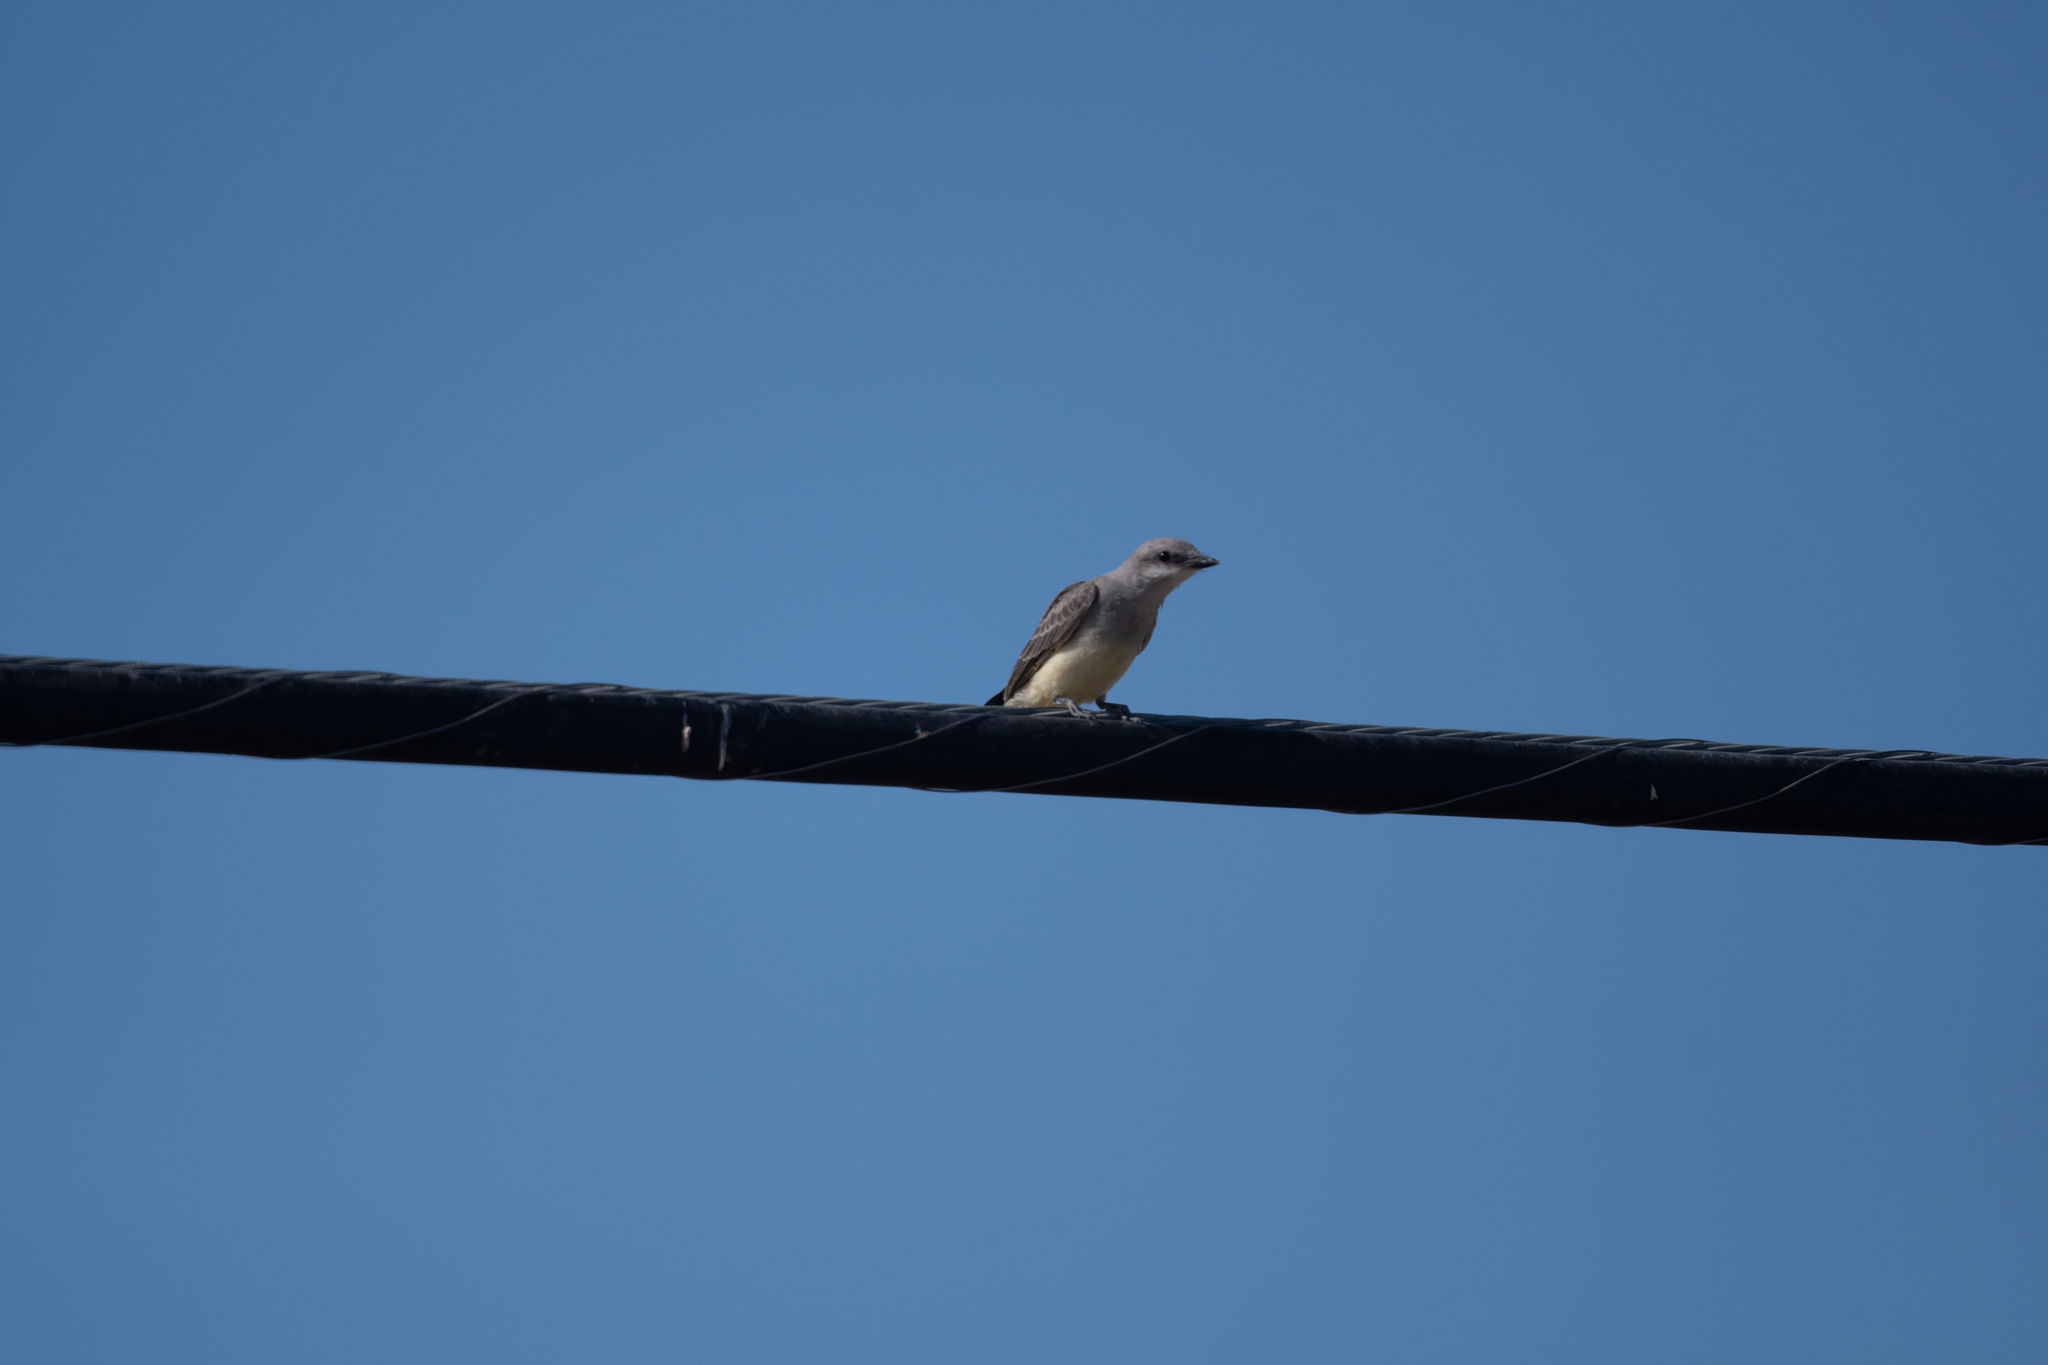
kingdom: Animalia
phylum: Chordata
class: Aves
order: Passeriformes
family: Tyrannidae
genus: Tyrannus
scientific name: Tyrannus verticalis
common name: Western kingbird
